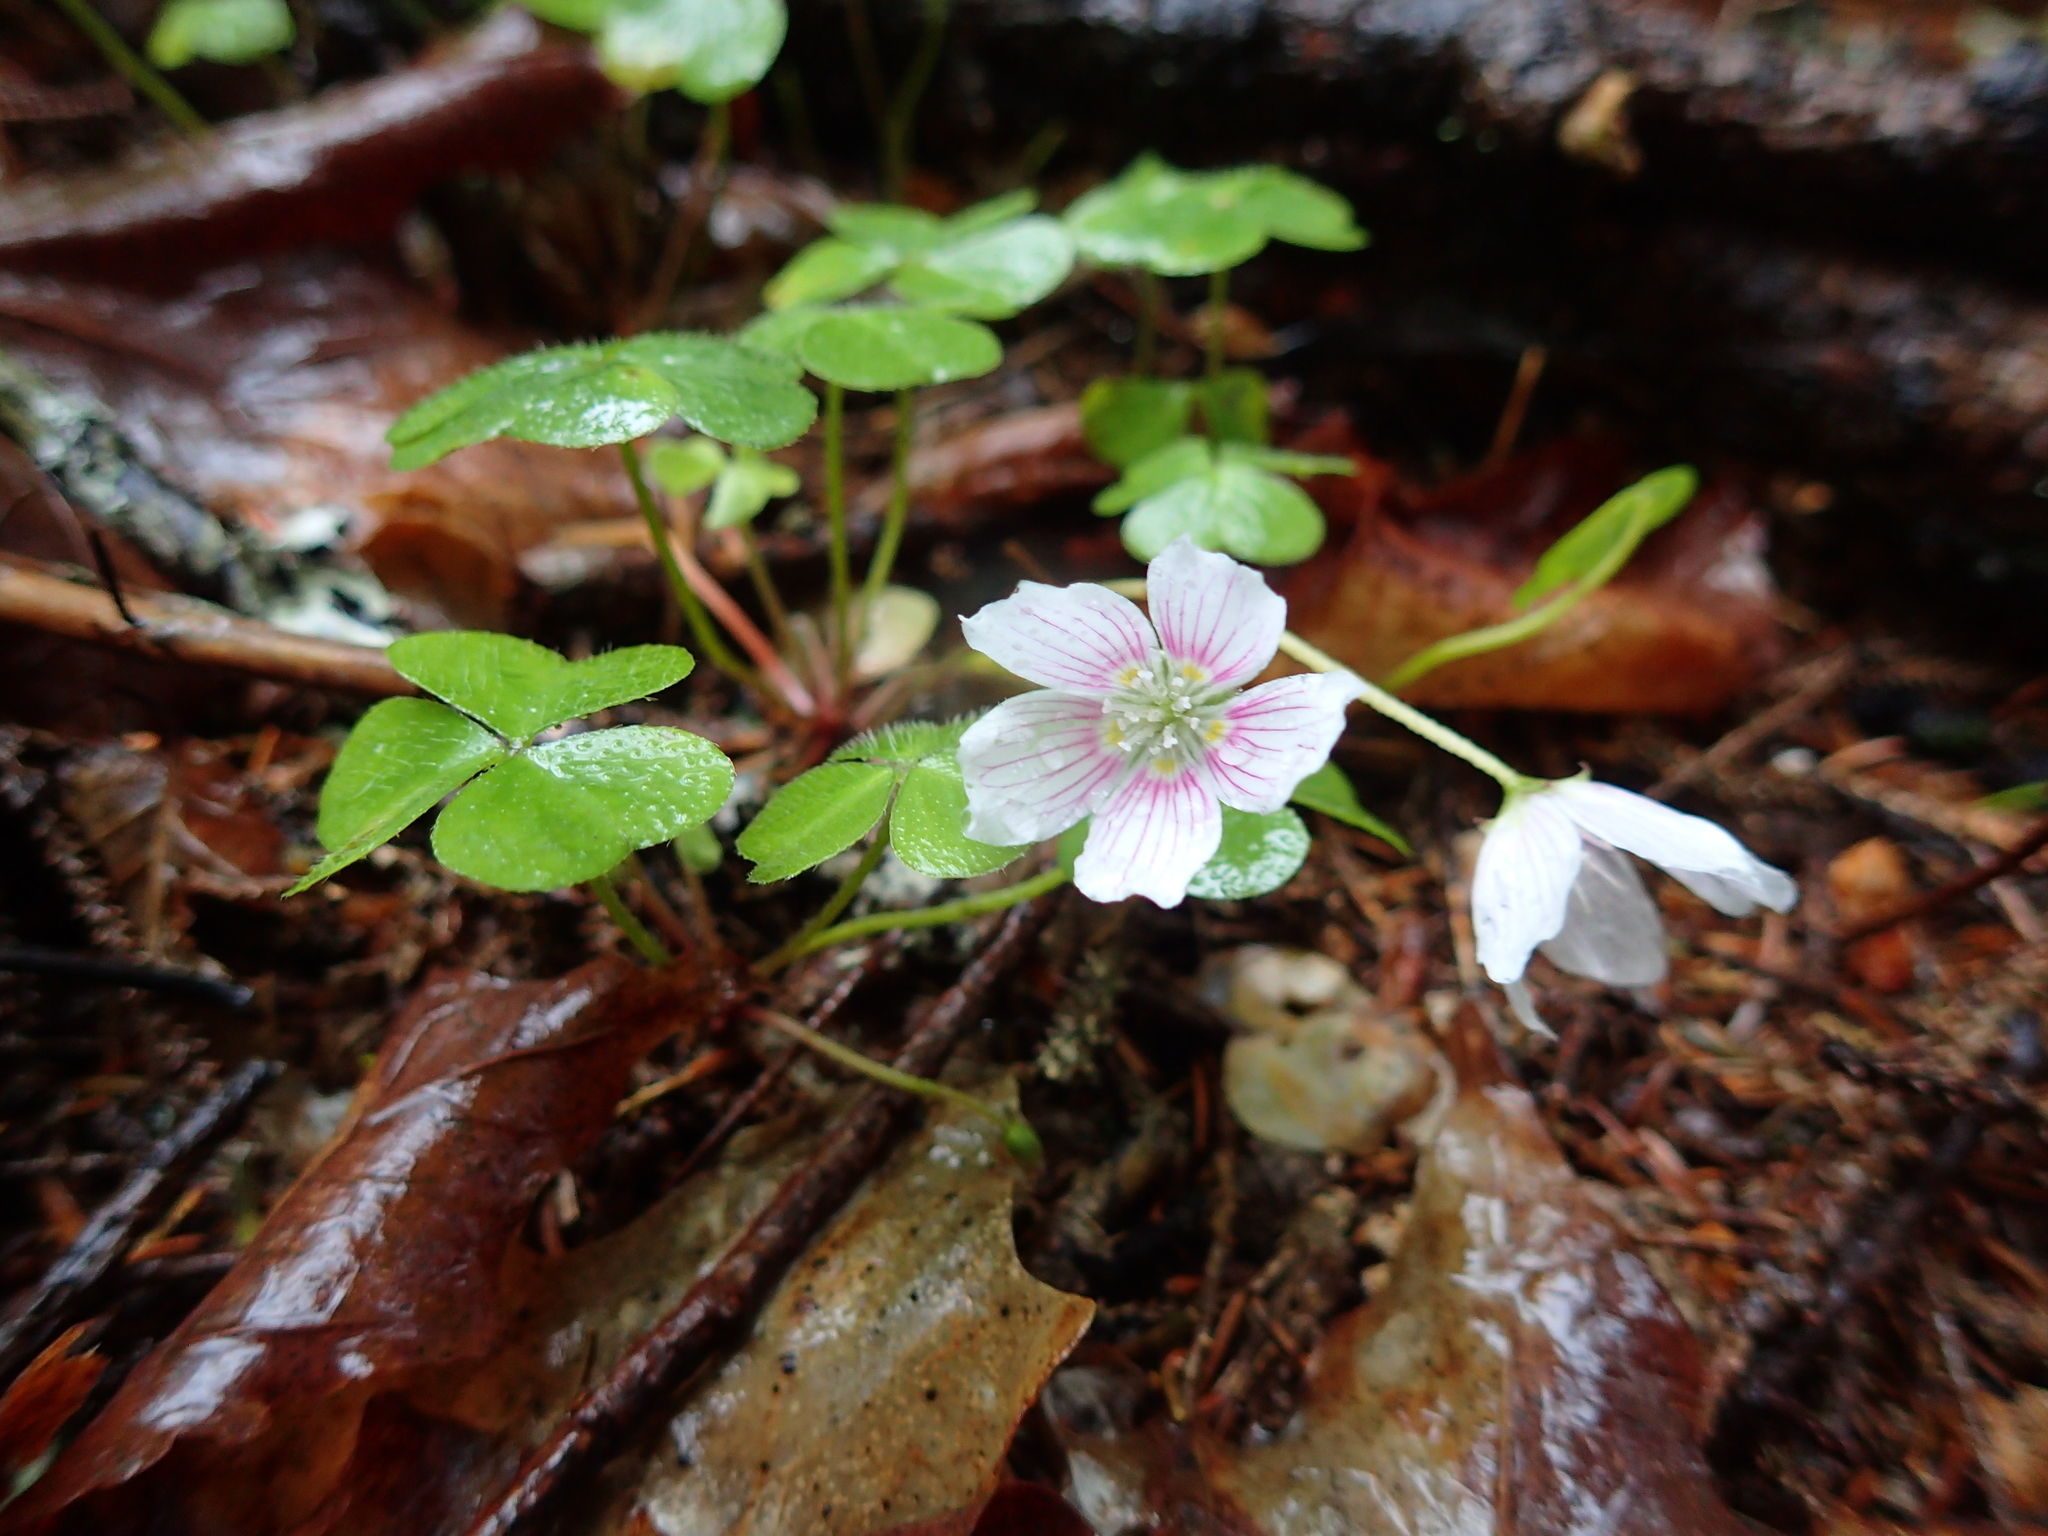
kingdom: Plantae
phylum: Tracheophyta
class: Magnoliopsida
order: Oxalidales
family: Oxalidaceae
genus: Oxalis
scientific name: Oxalis montana
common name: American wood-sorrel
